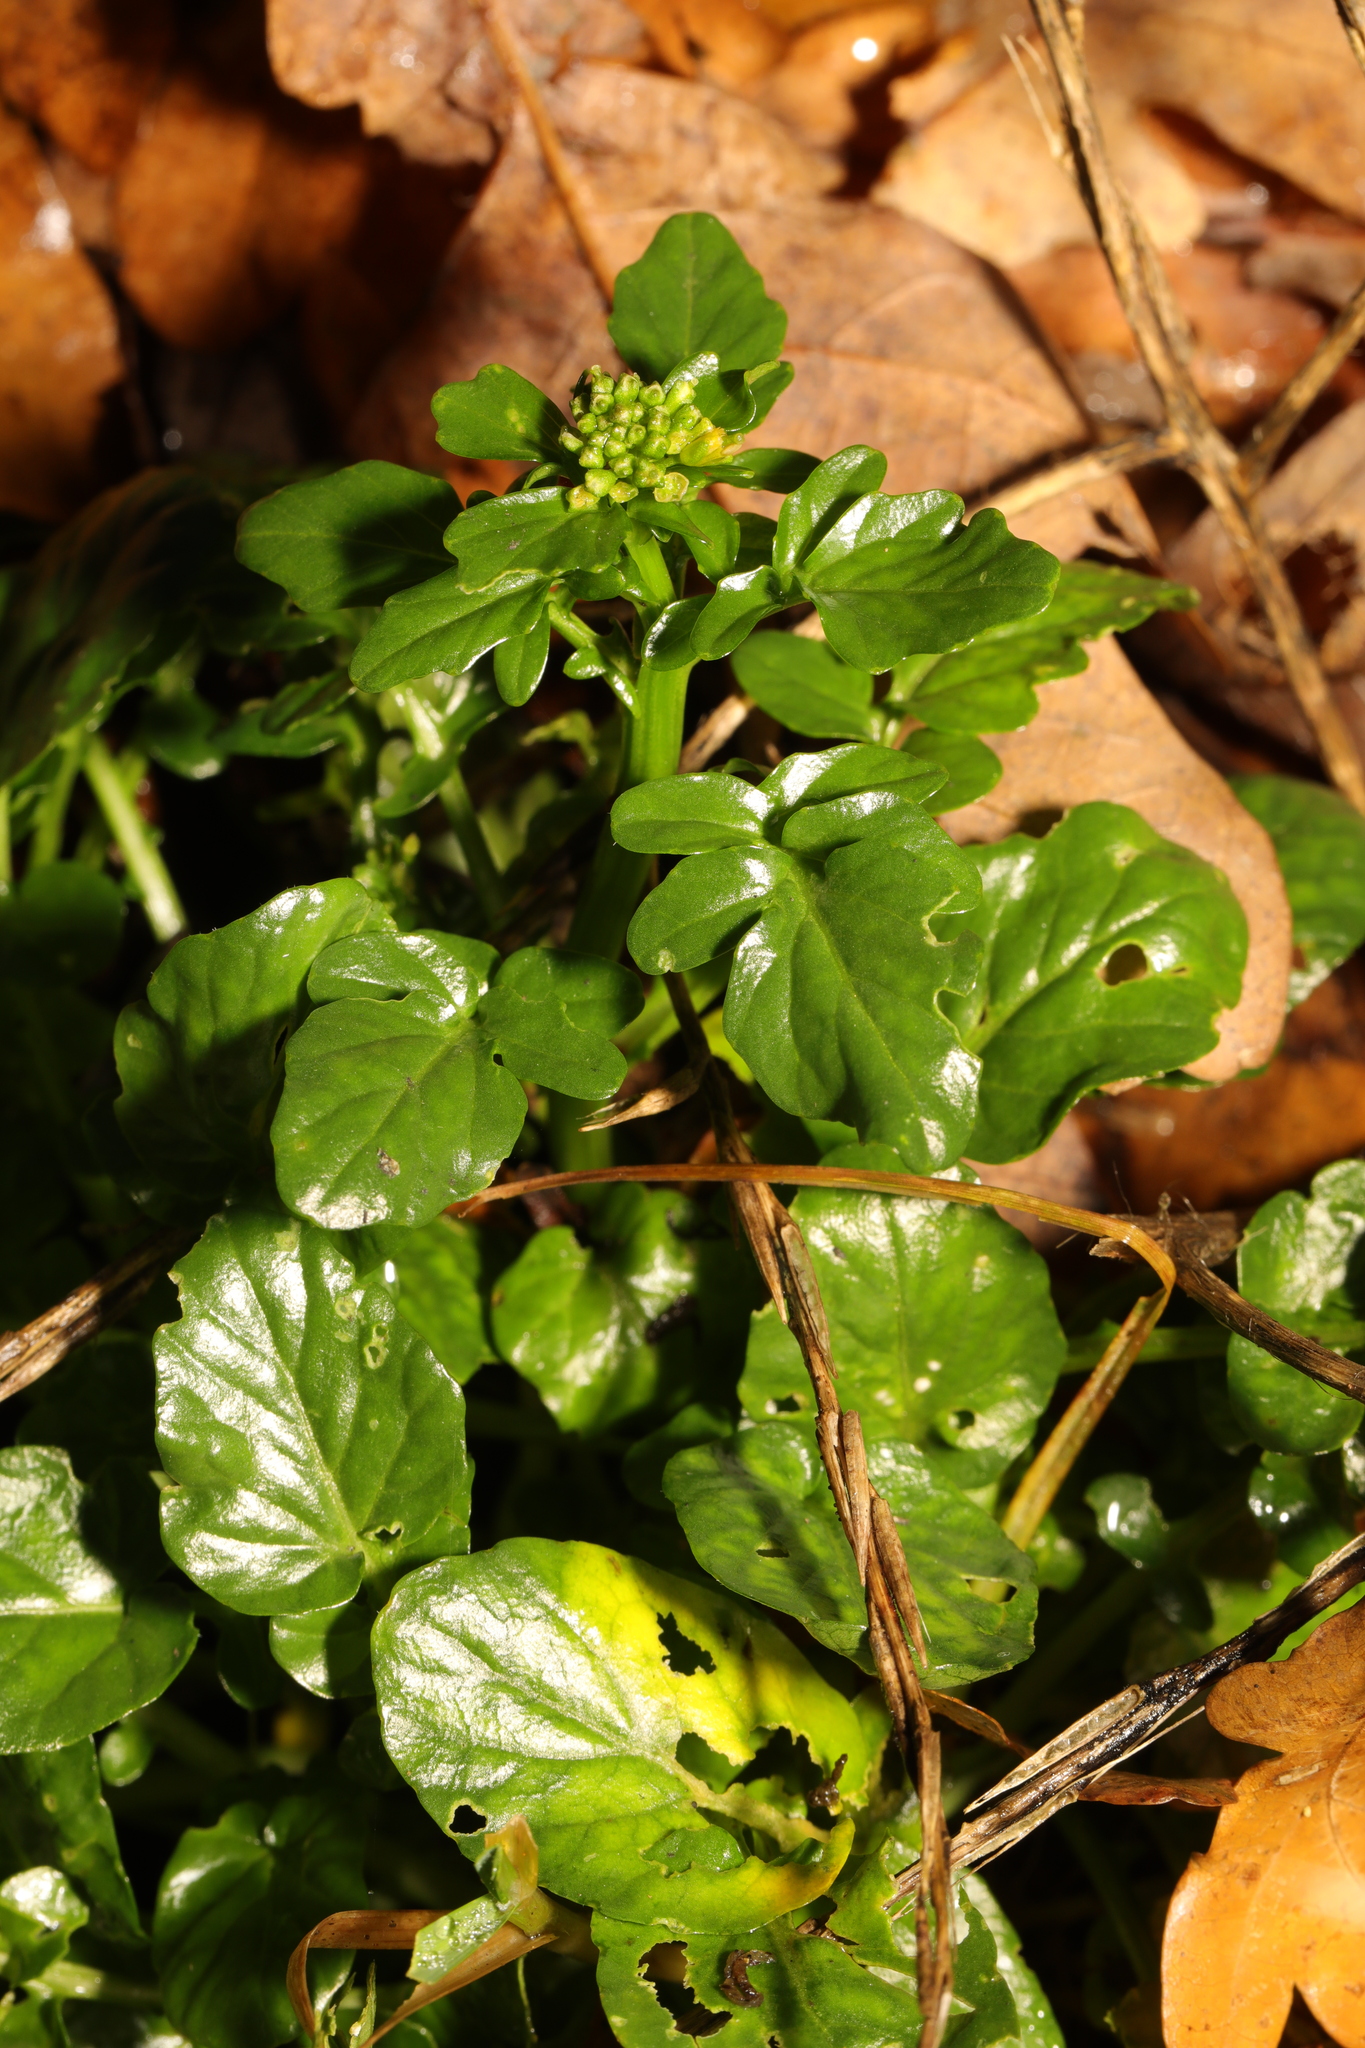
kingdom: Plantae
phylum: Tracheophyta
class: Magnoliopsida
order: Brassicales
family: Brassicaceae
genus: Barbarea
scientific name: Barbarea vulgaris
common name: Cressy-greens
